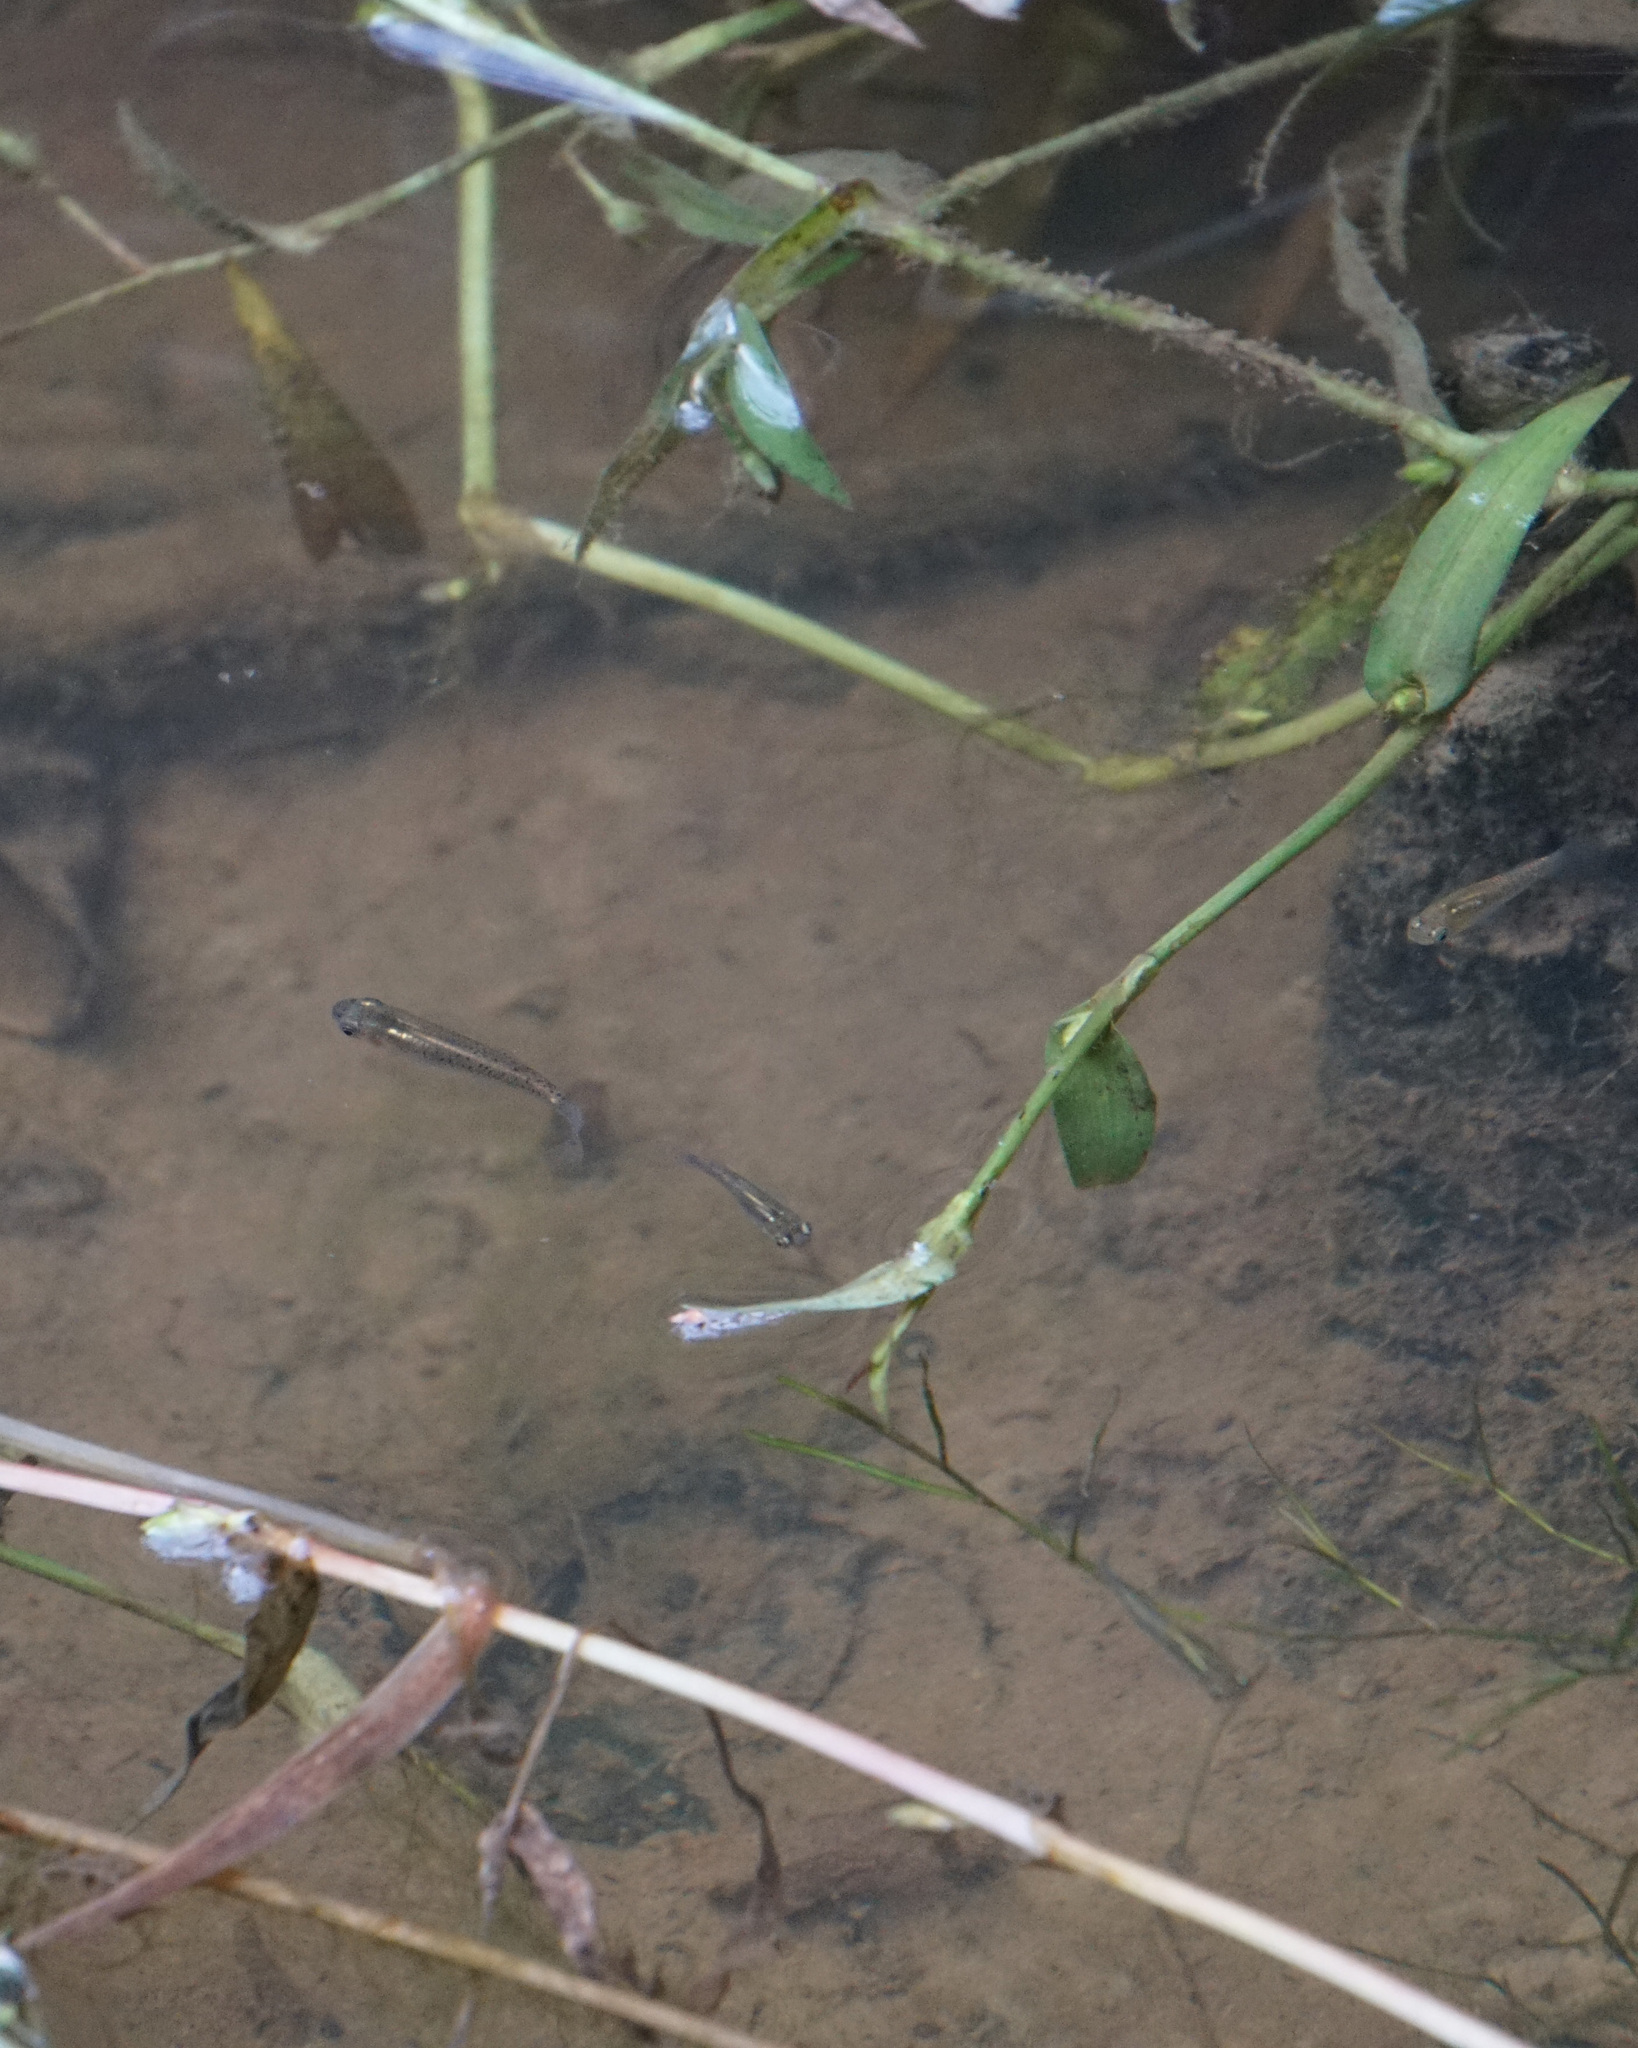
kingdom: Animalia
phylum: Chordata
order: Cyprinodontiformes
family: Poeciliidae
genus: Gambusia
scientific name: Gambusia holbrooki
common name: Eastern mosquitofish
